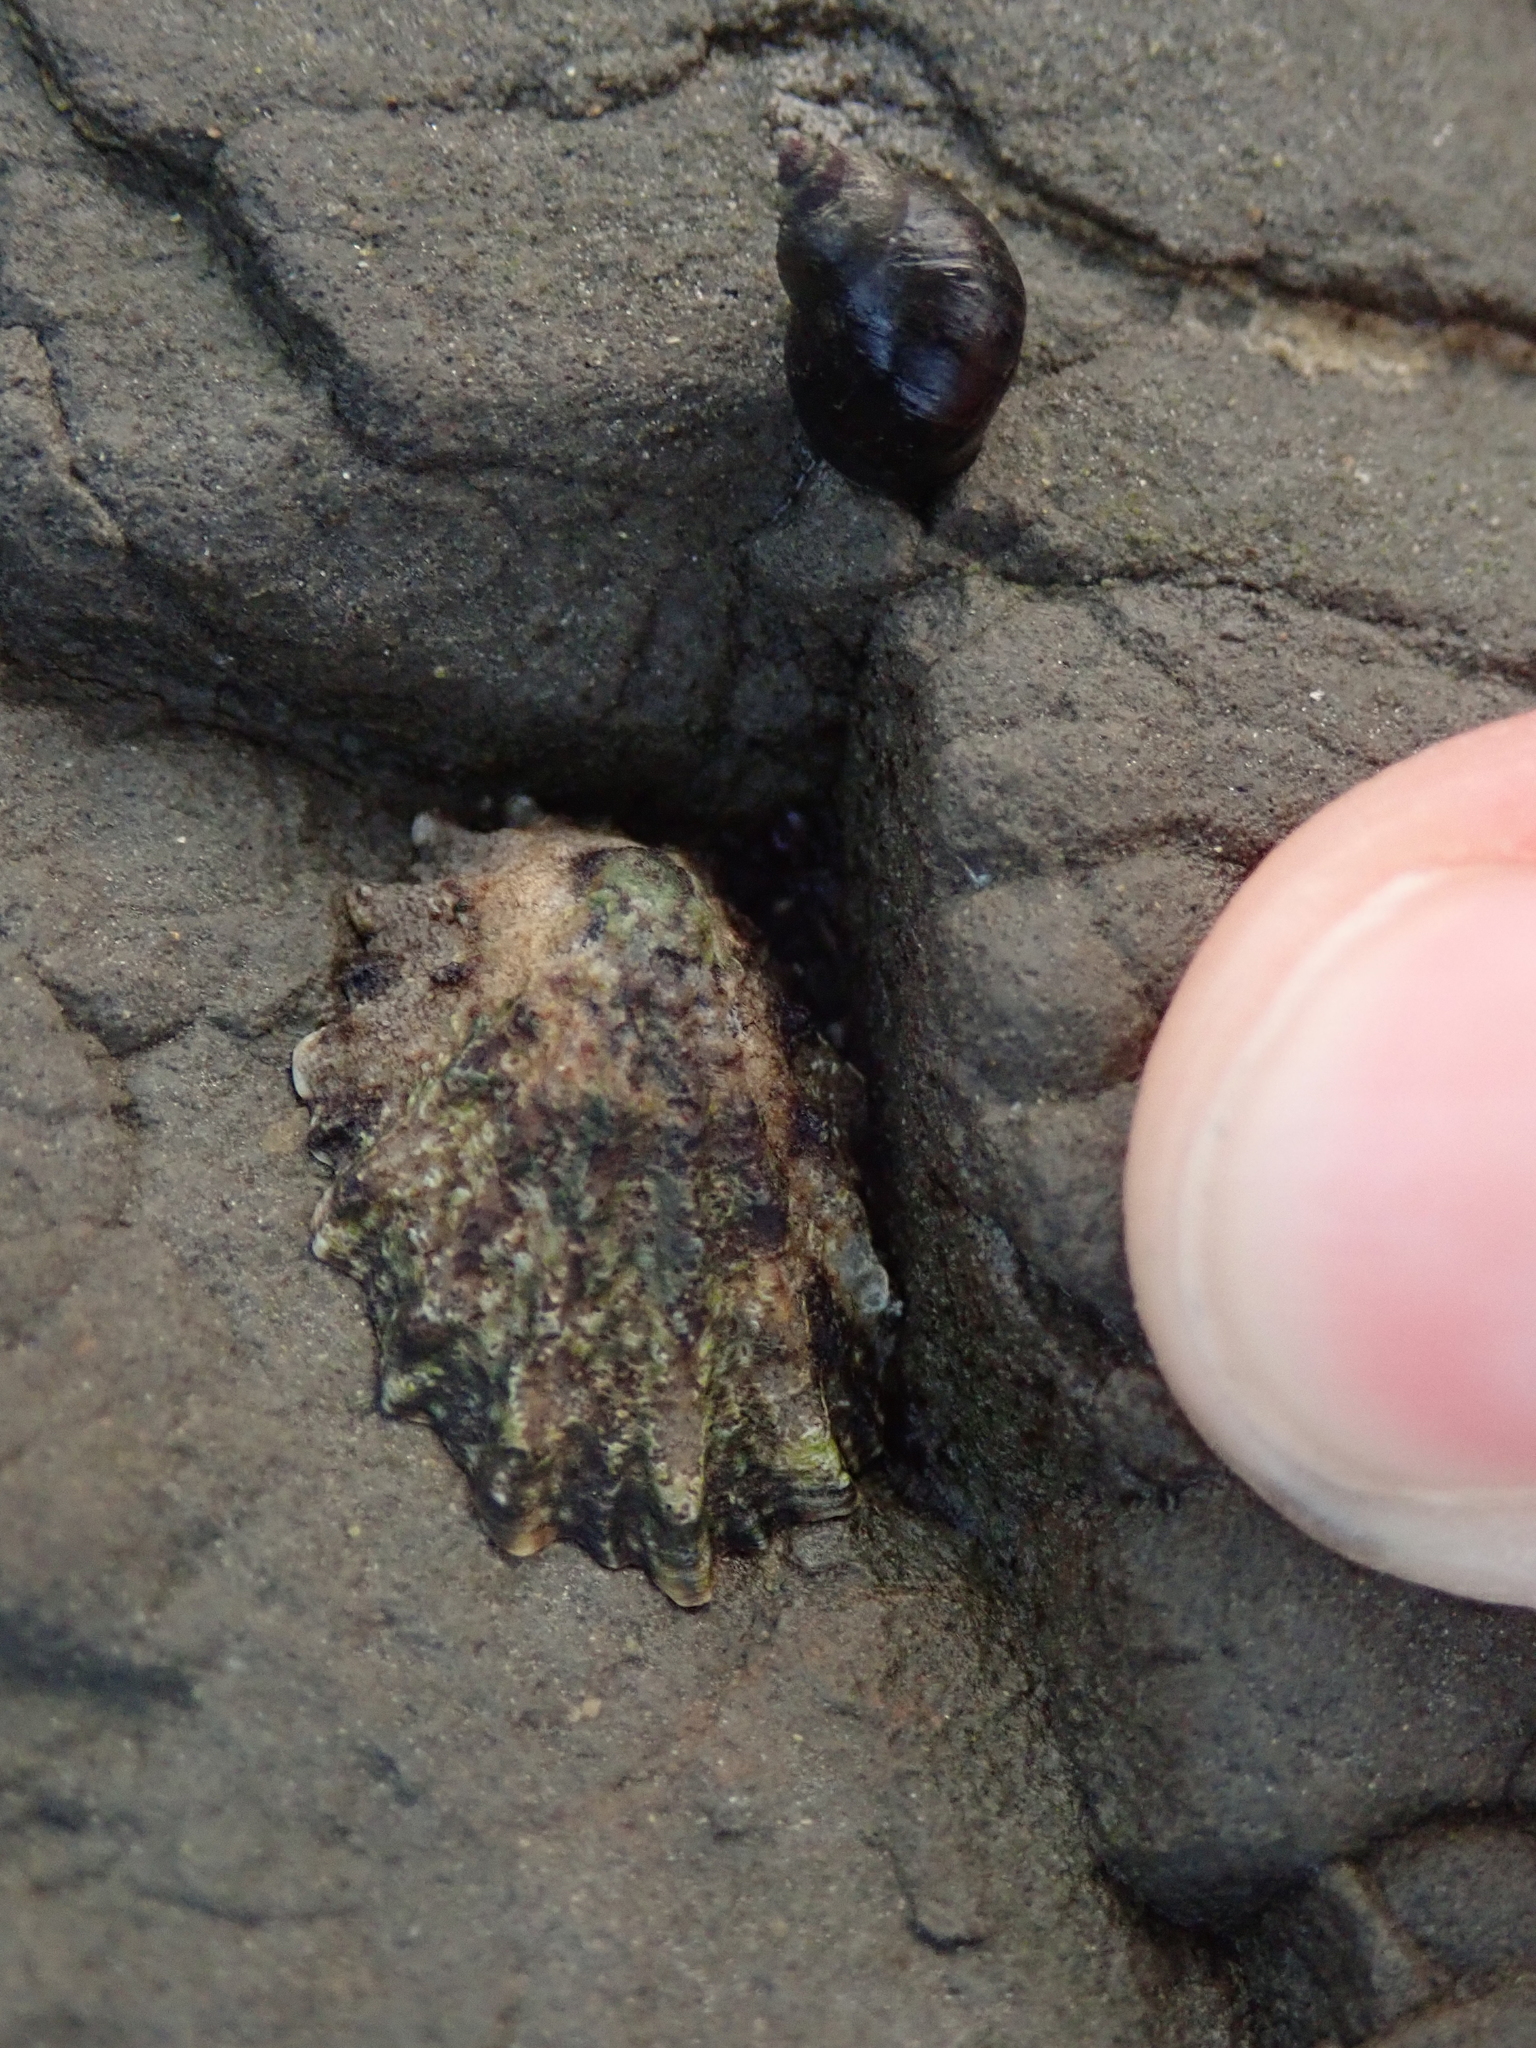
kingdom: Animalia
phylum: Mollusca
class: Gastropoda
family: Lottiidae
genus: Lottia
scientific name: Lottia scabra
